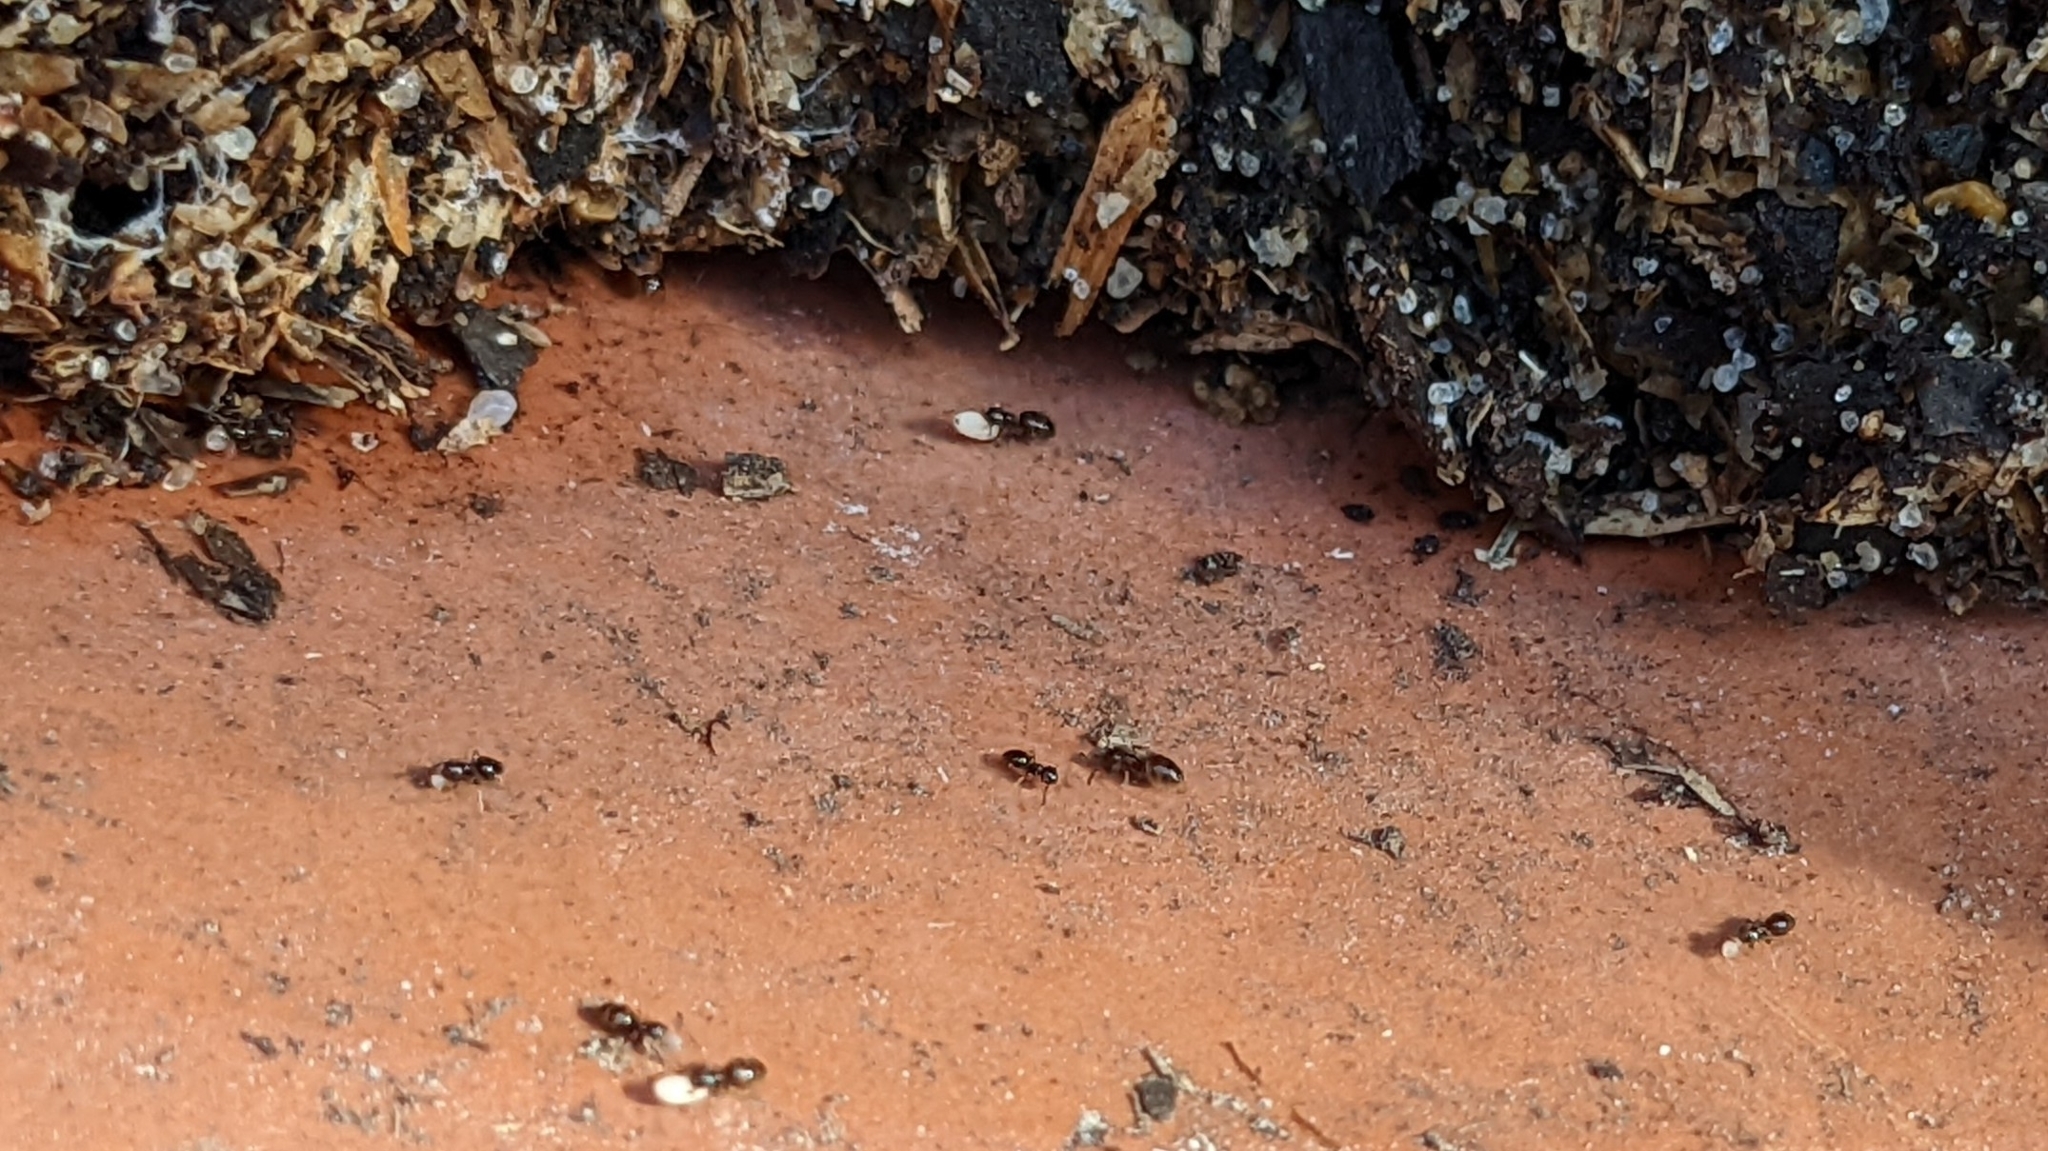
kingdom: Animalia
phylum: Arthropoda
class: Insecta
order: Hymenoptera
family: Formicidae
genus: Brachymyrmex
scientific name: Brachymyrmex patagonicus
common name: Dark rover ant
